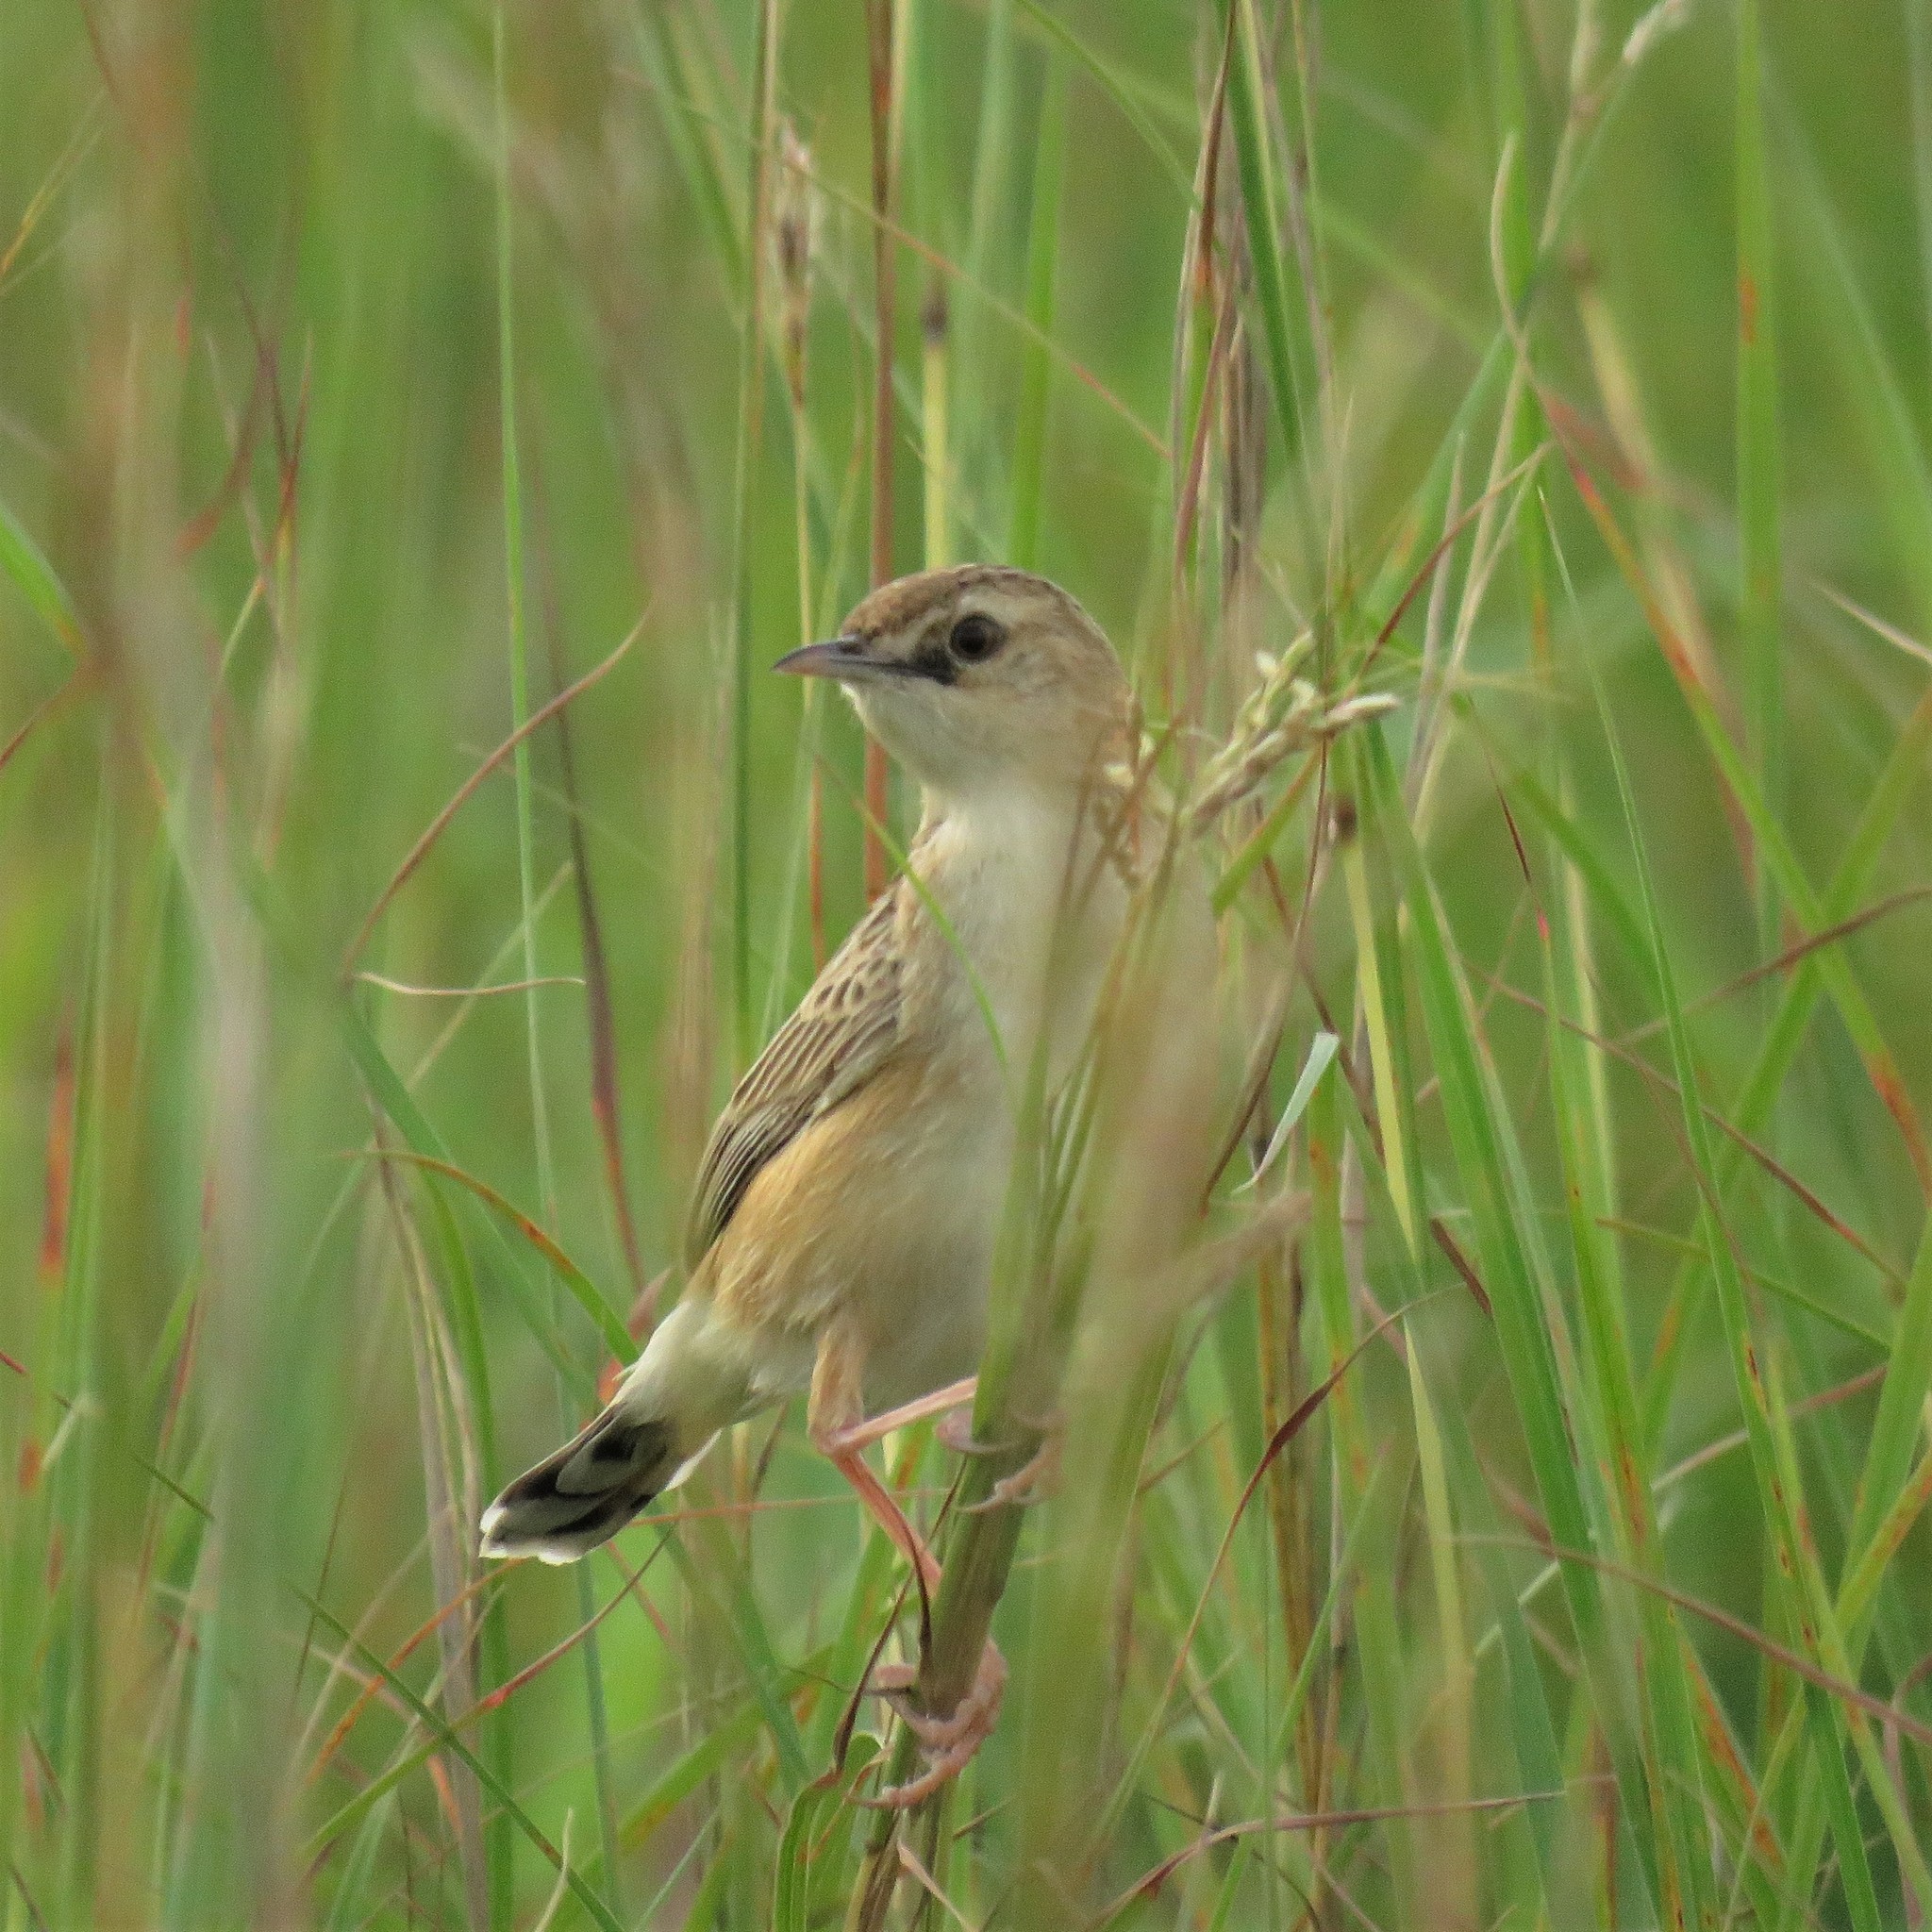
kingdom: Animalia
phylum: Chordata
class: Aves
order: Passeriformes
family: Cisticolidae
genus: Cisticola
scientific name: Cisticola juncidis
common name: Zitting cisticola
